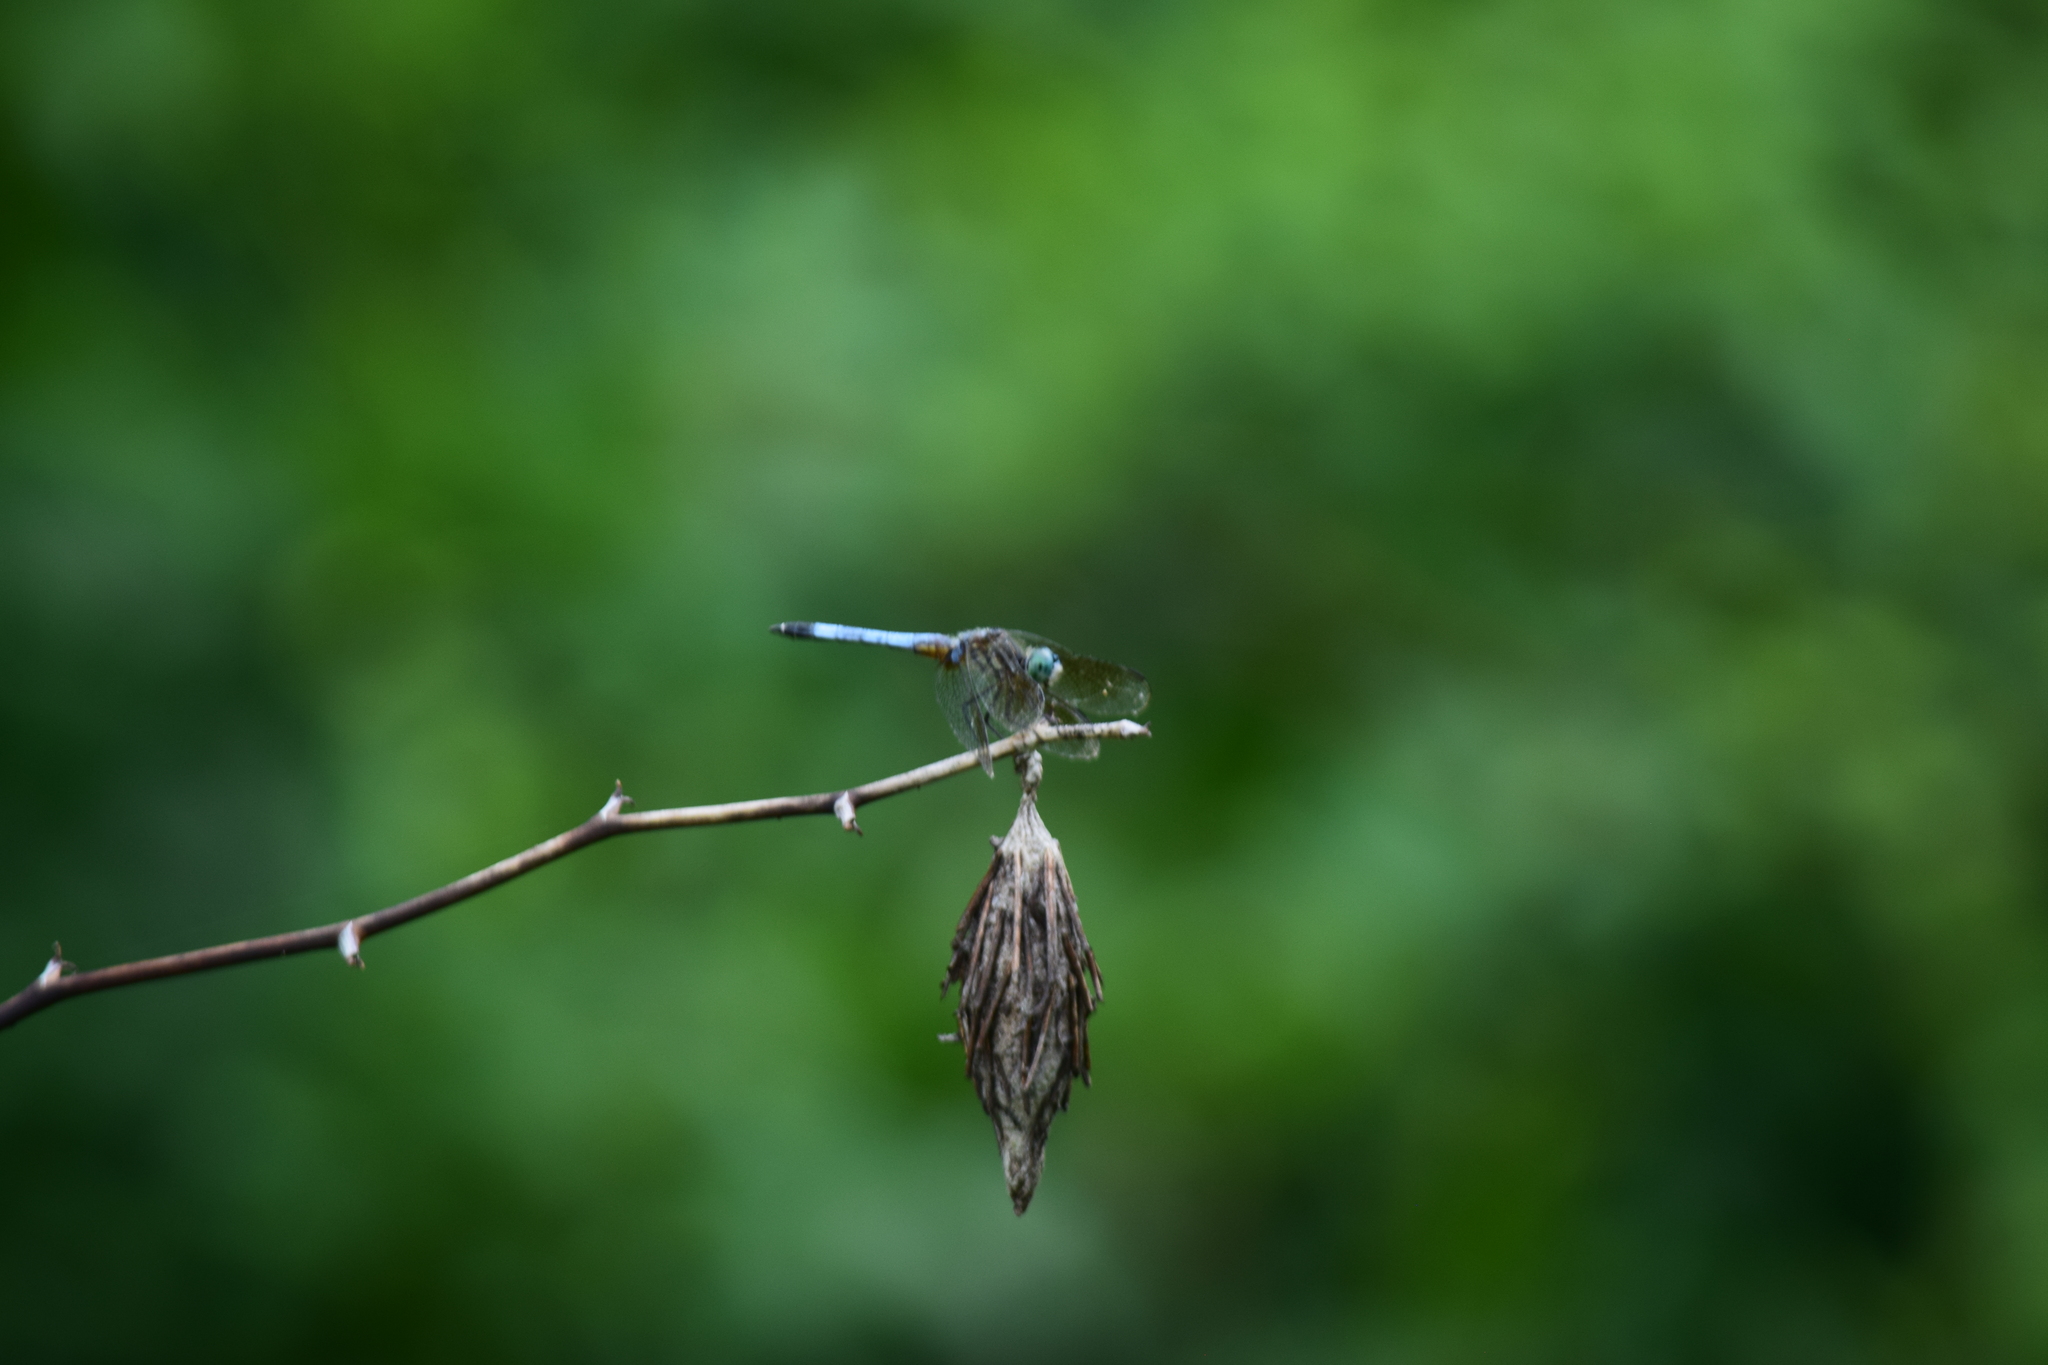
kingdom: Animalia
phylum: Arthropoda
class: Insecta
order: Odonata
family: Libellulidae
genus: Pachydiplax
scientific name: Pachydiplax longipennis
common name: Blue dasher
